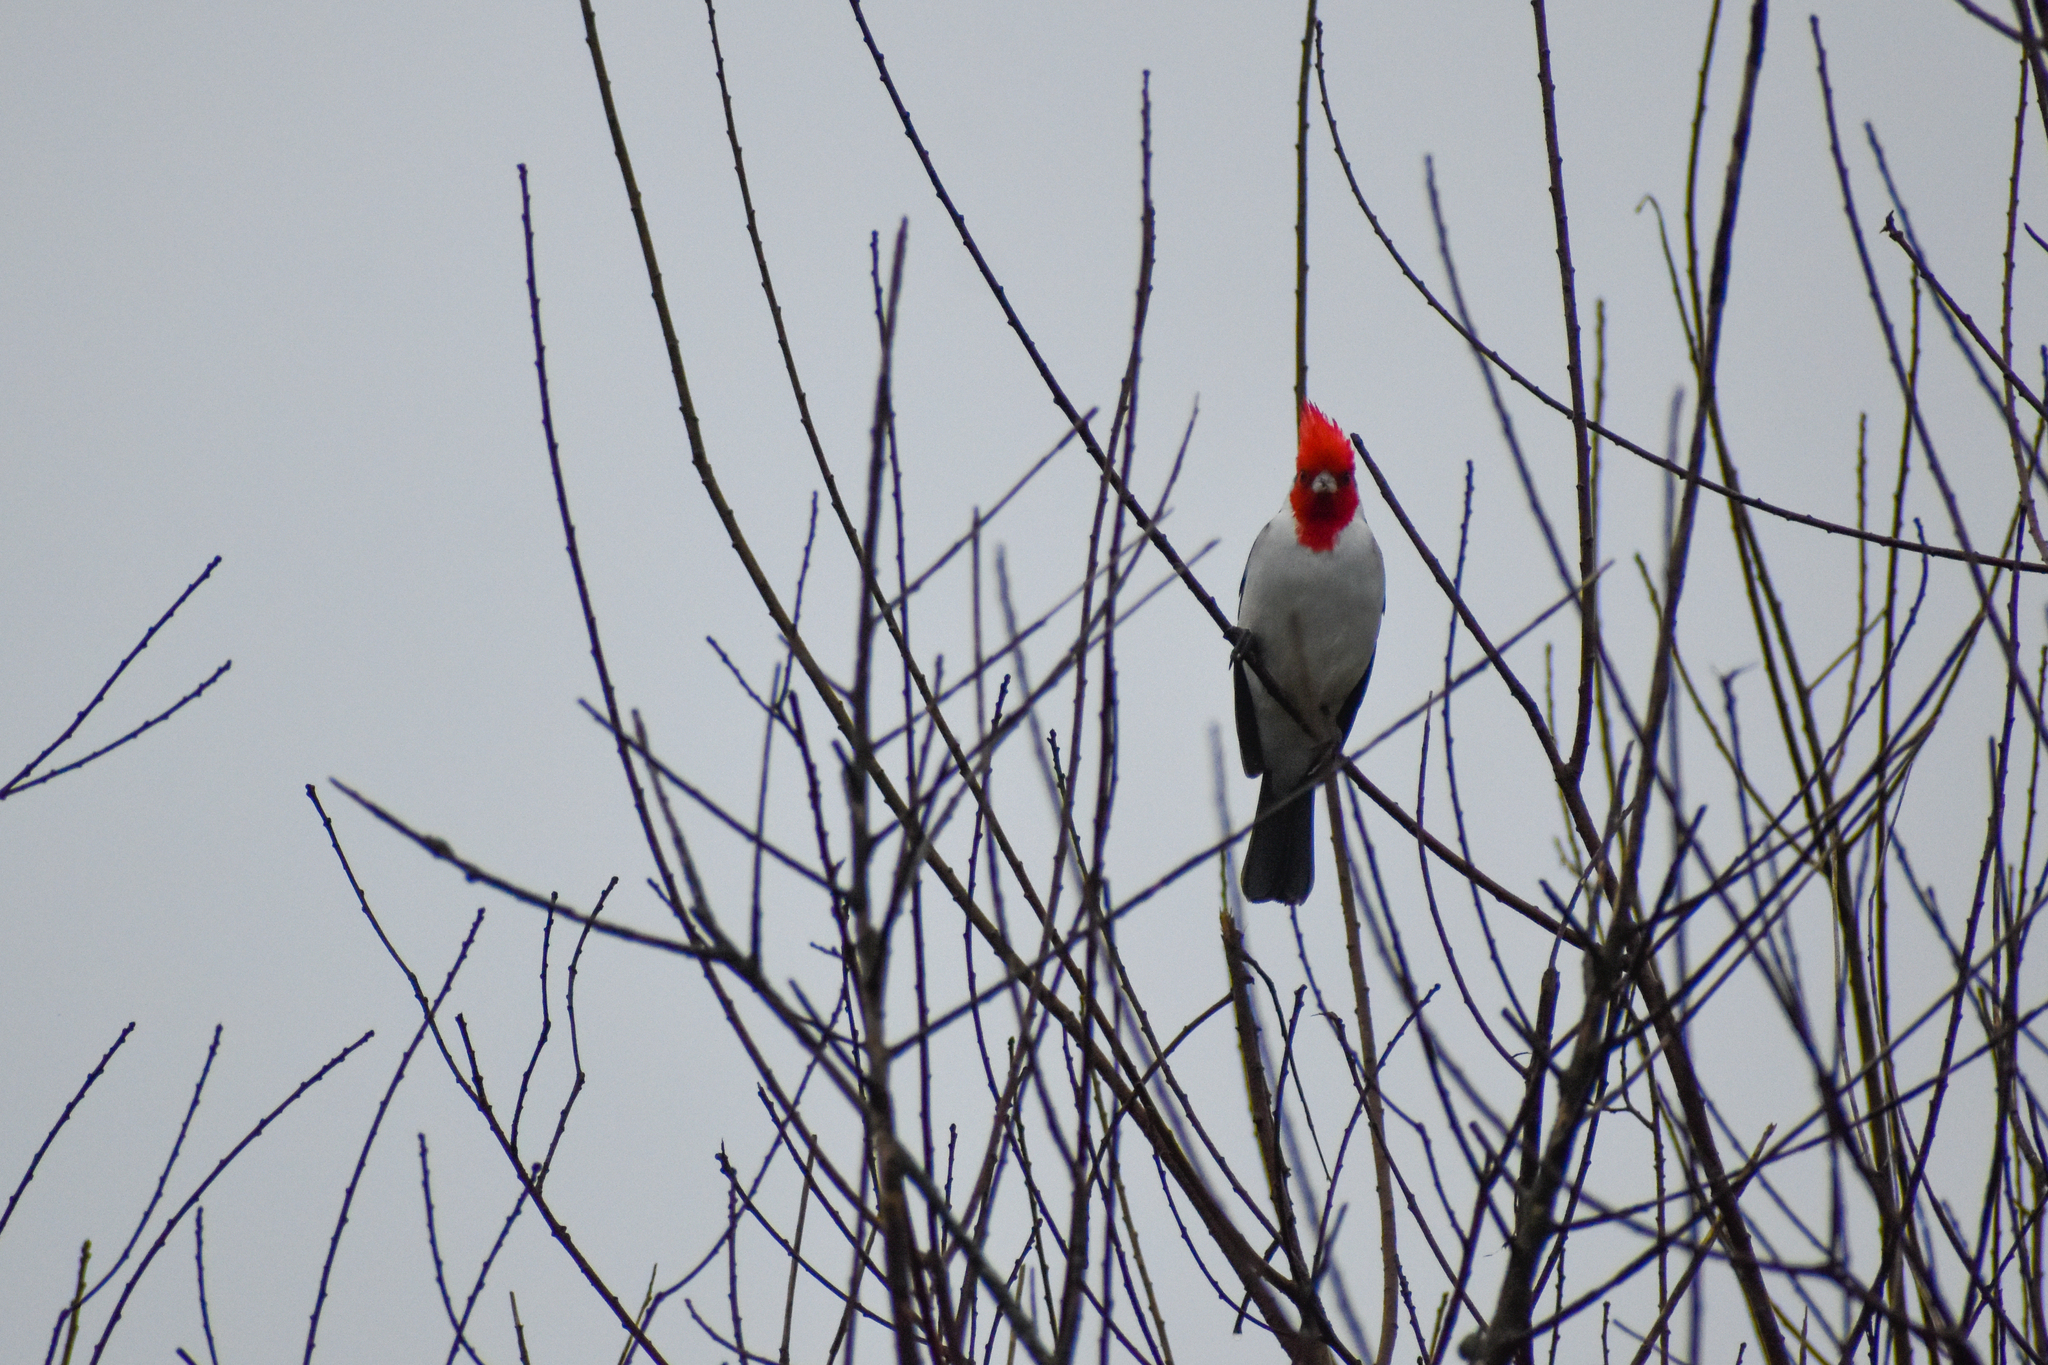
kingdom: Animalia
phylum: Chordata
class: Aves
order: Passeriformes
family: Thraupidae
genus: Paroaria
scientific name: Paroaria coronata
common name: Red-crested cardinal
